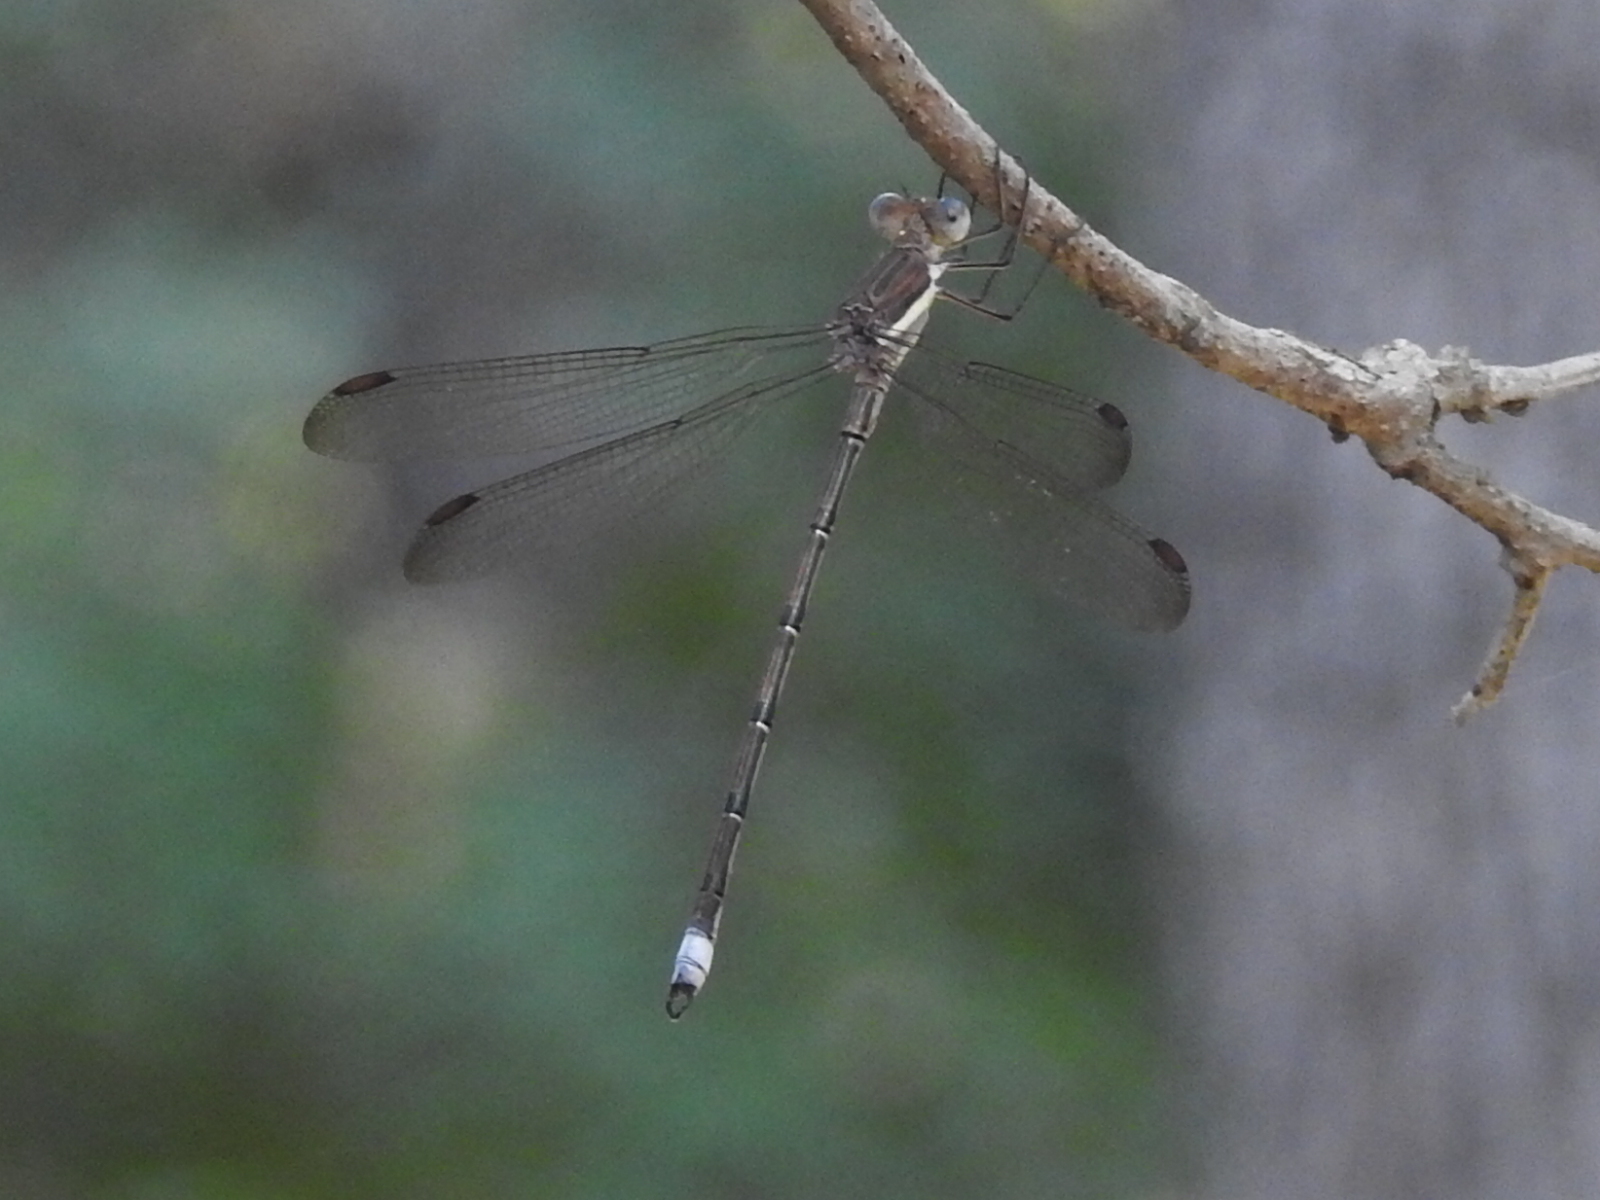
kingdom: Animalia
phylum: Arthropoda
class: Insecta
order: Odonata
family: Lestidae
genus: Archilestes
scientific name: Archilestes grandis
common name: Great spreadwing
